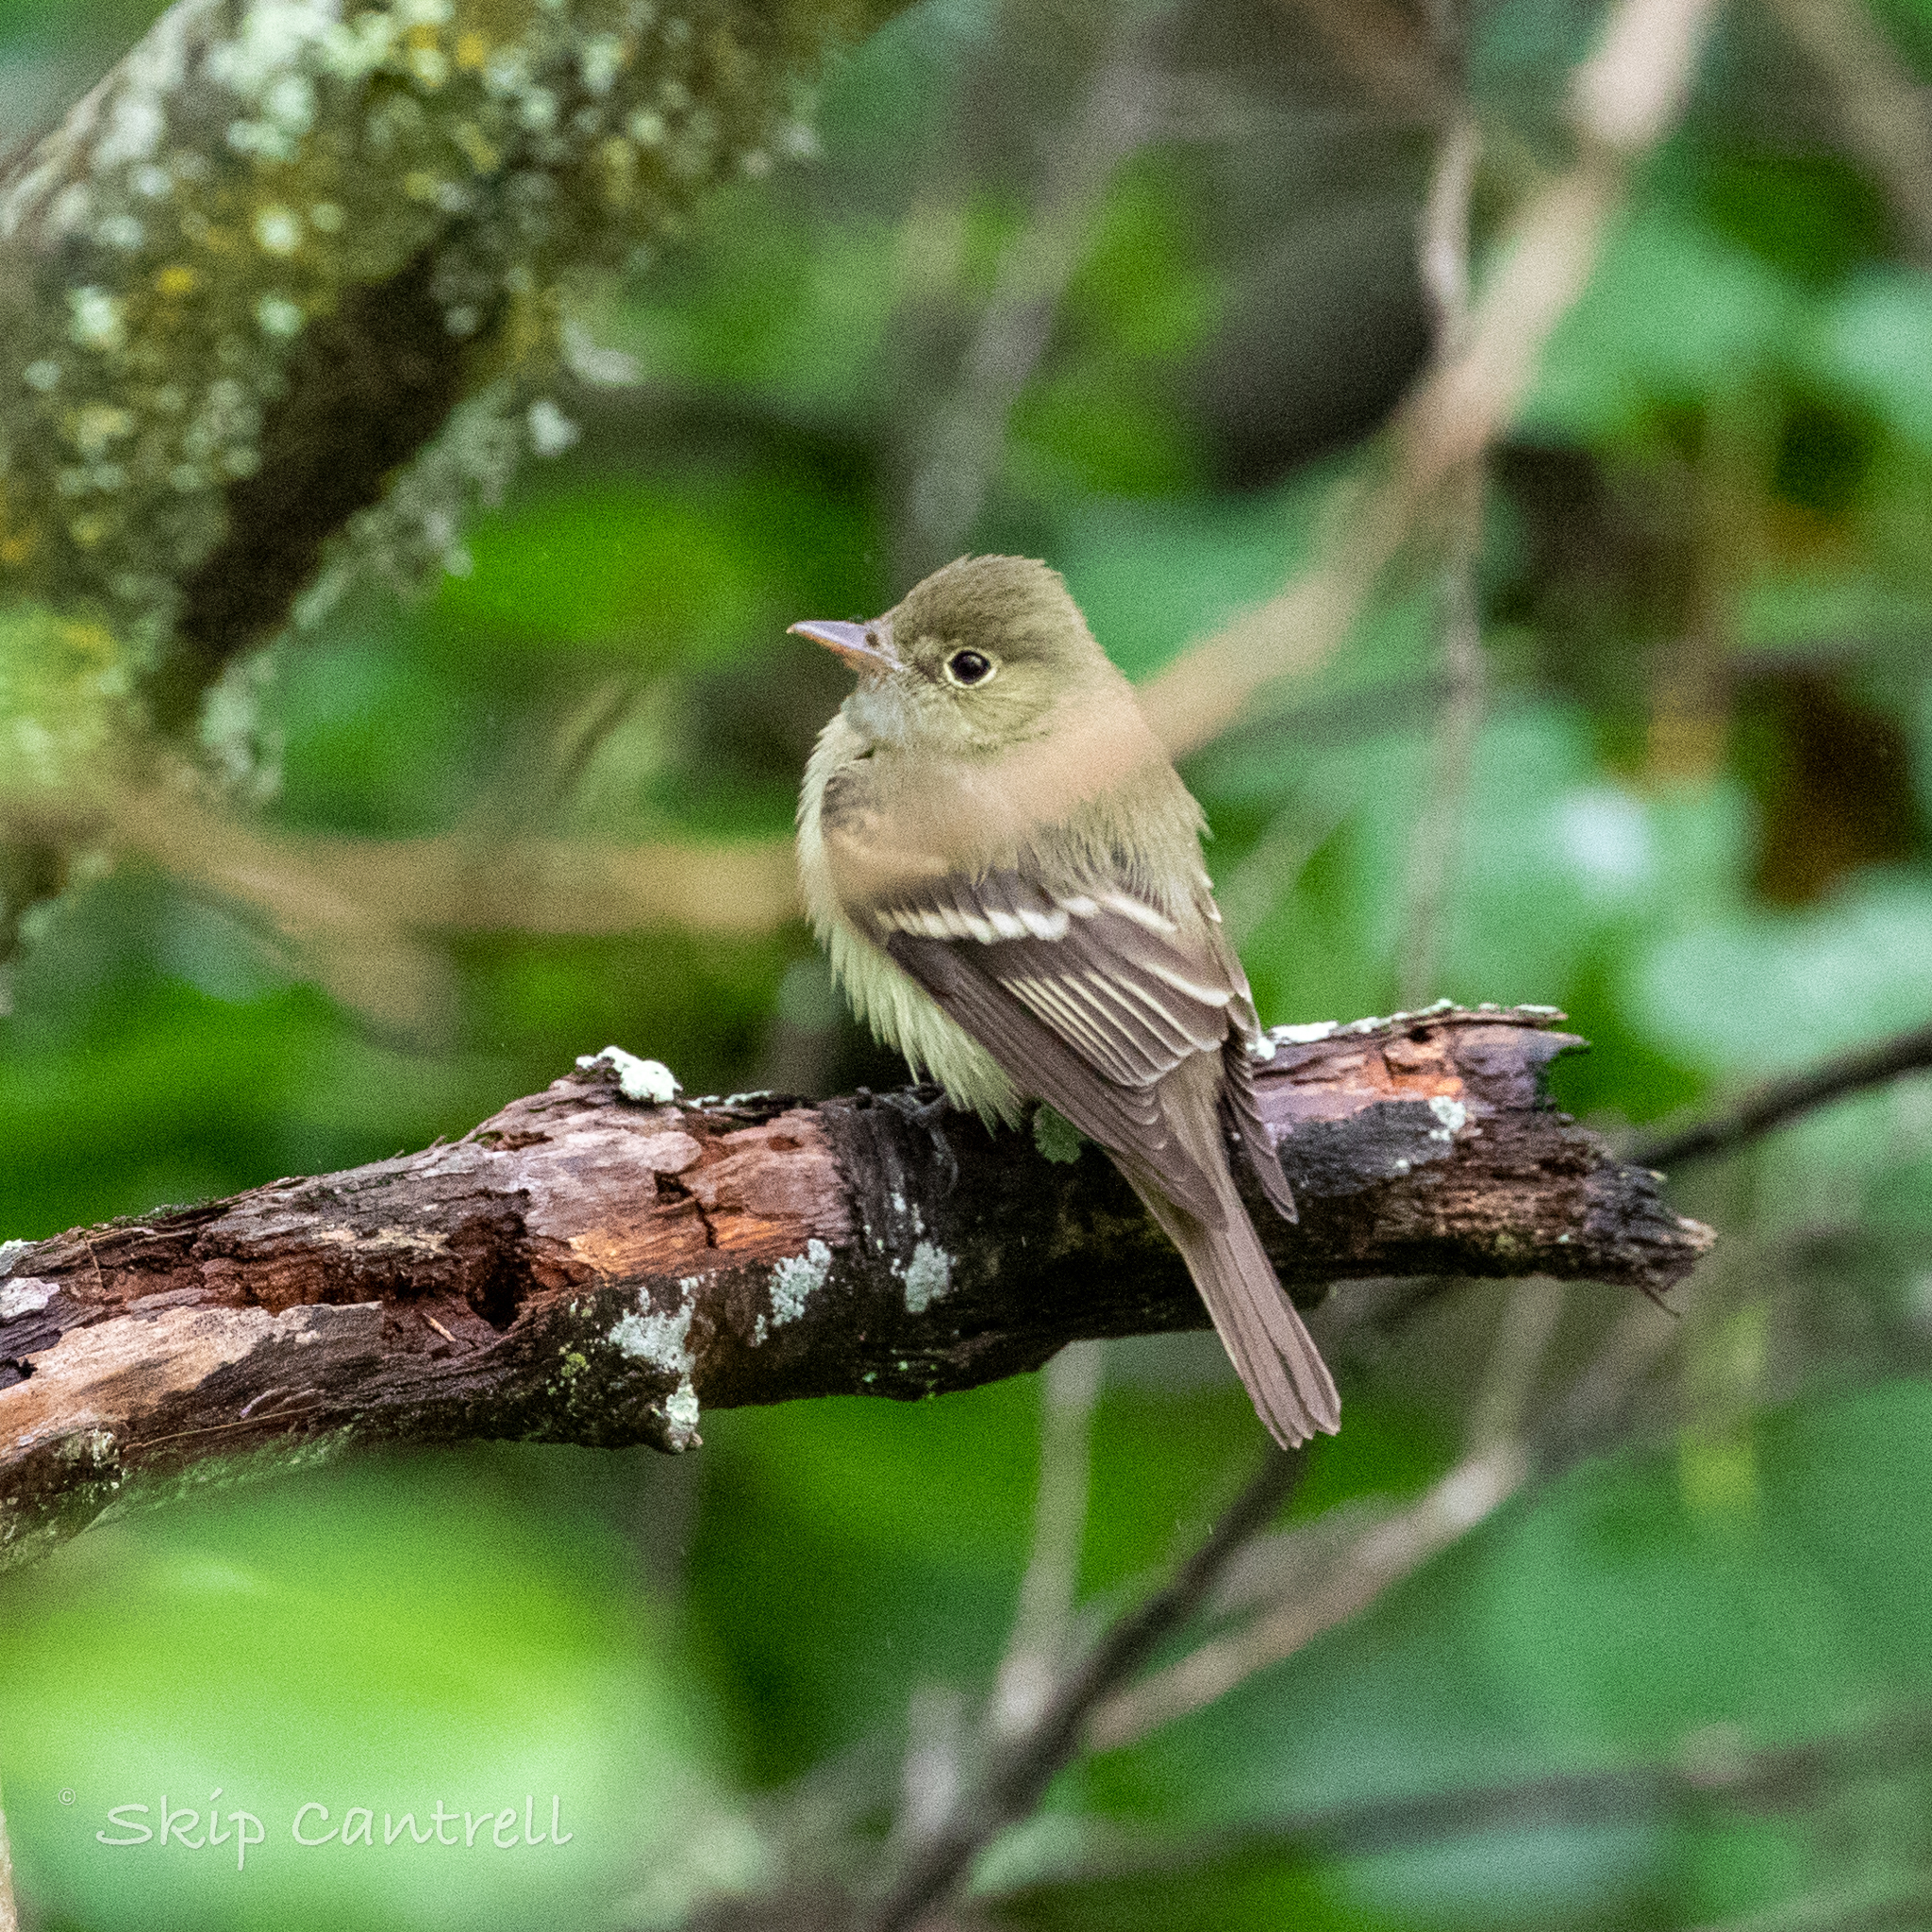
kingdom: Animalia
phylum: Chordata
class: Aves
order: Passeriformes
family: Tyrannidae
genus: Empidonax
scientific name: Empidonax virescens
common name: Acadian flycatcher
